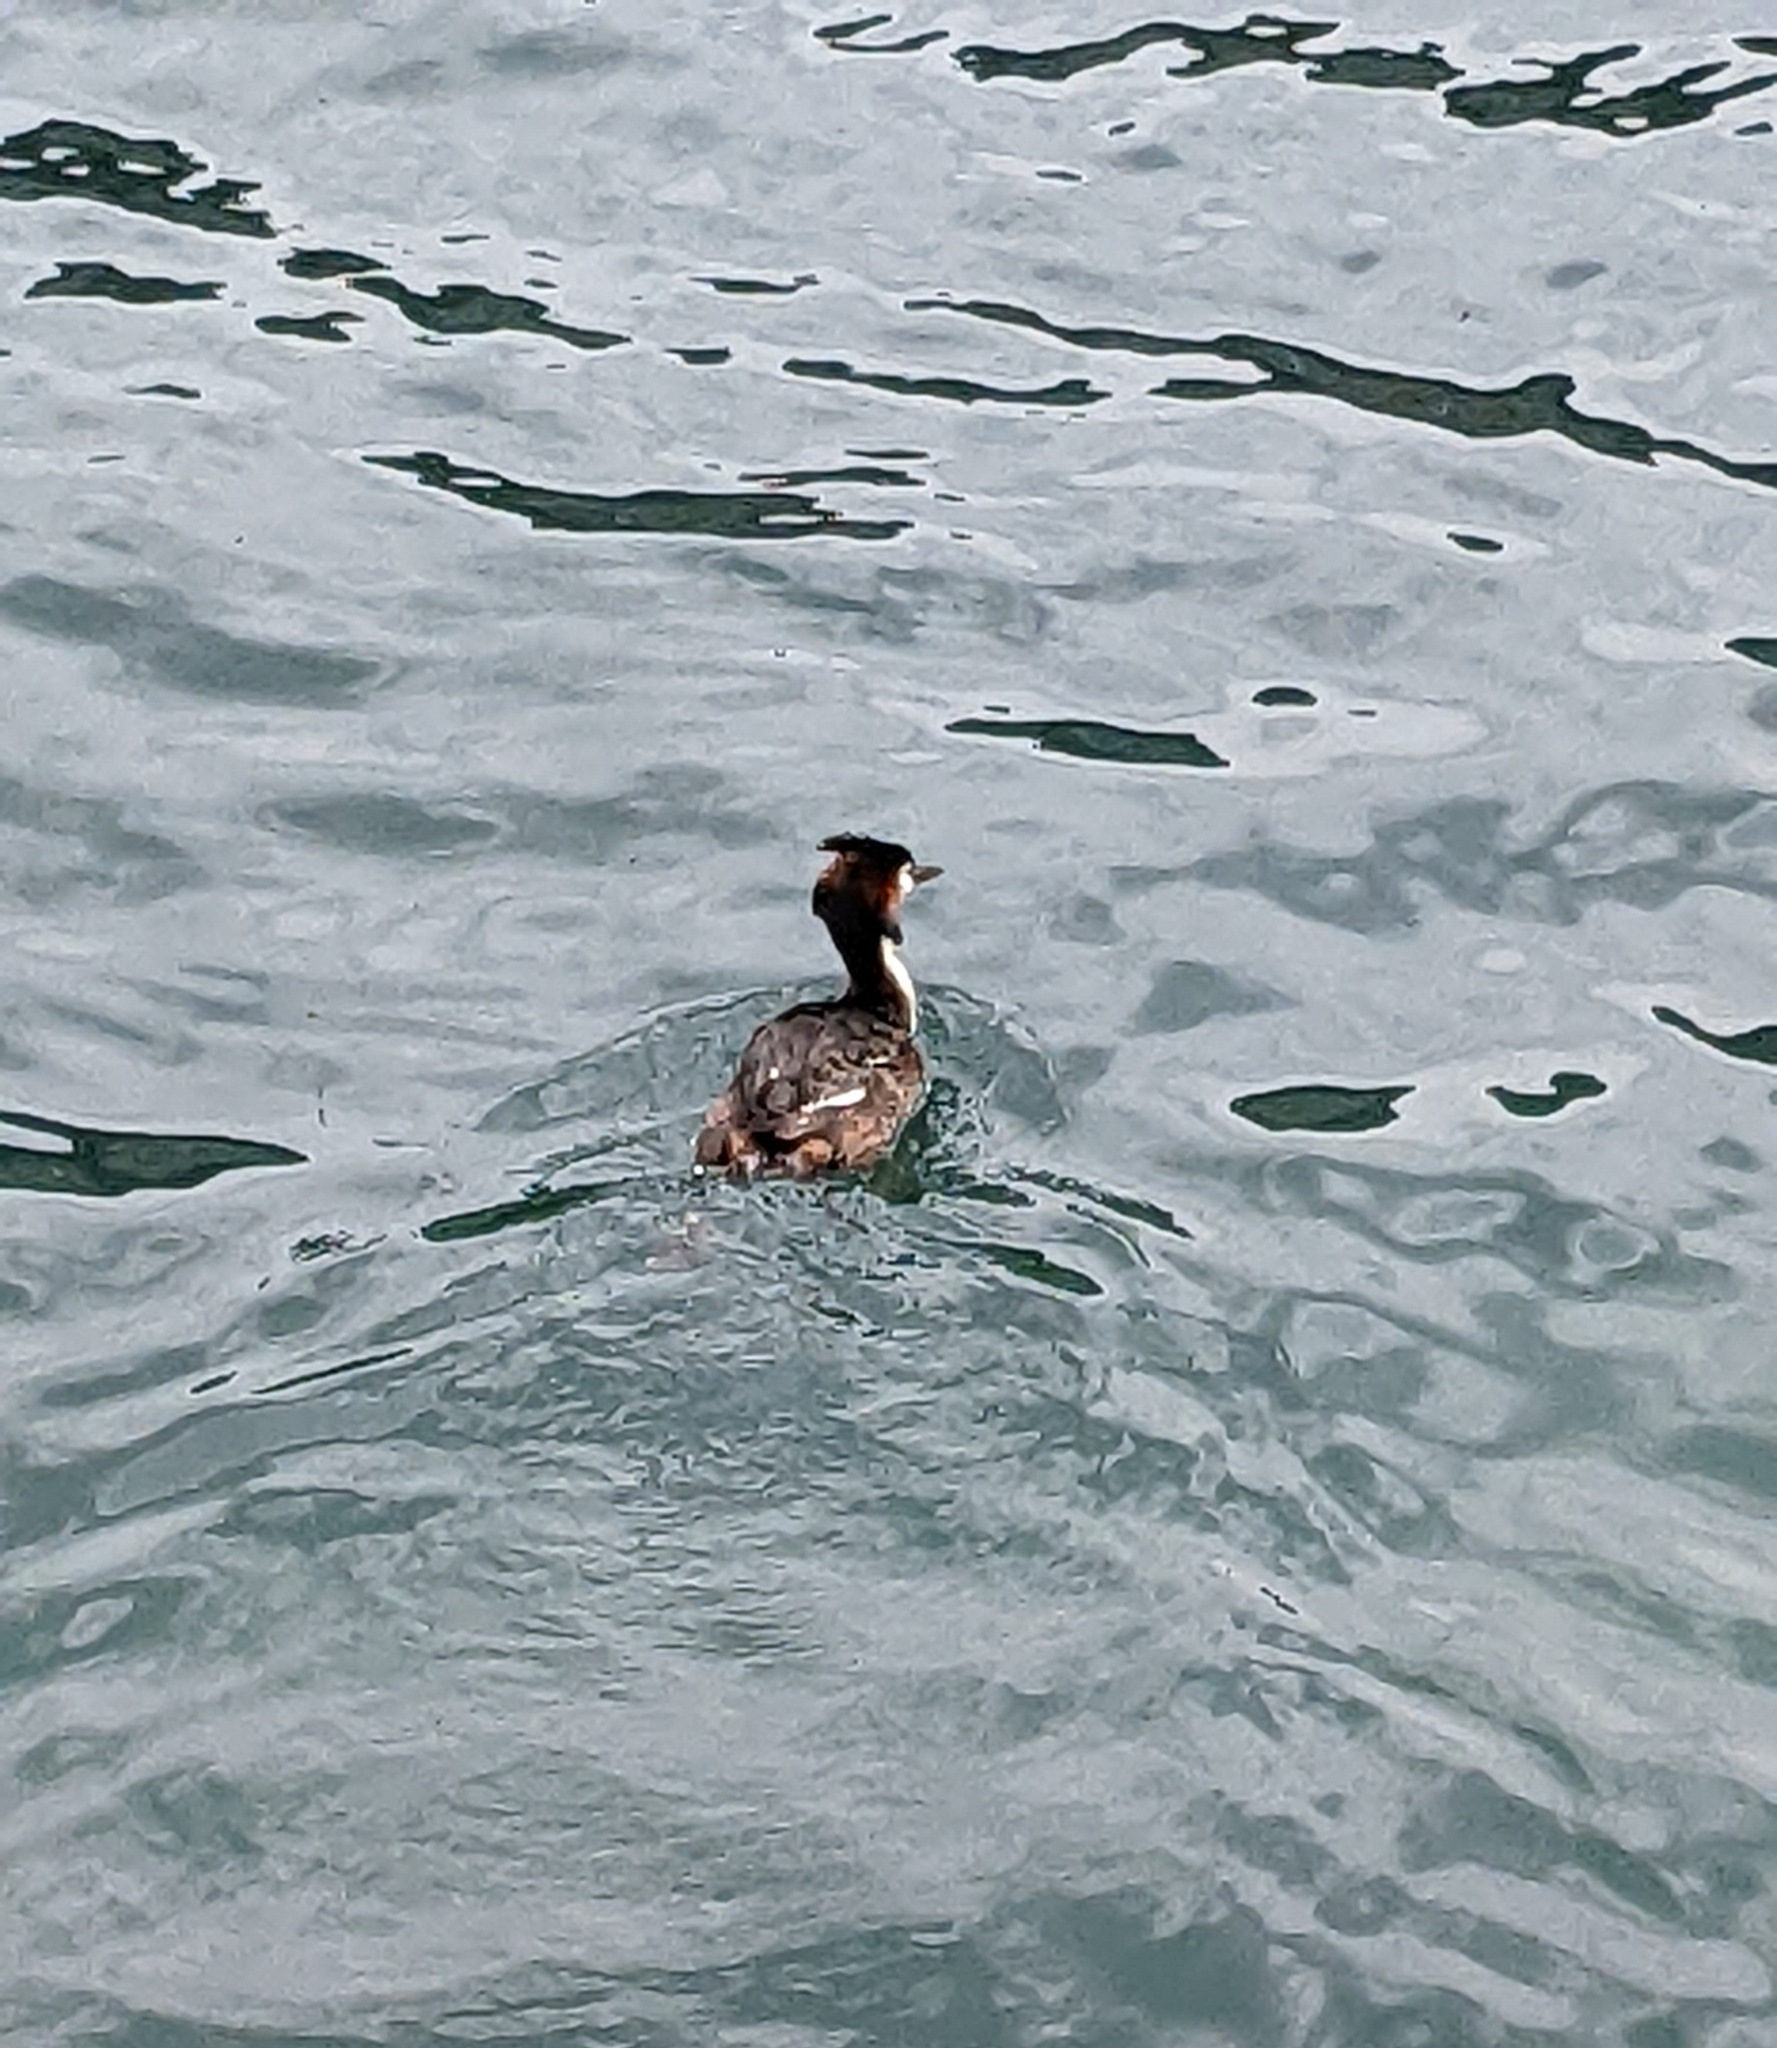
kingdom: Animalia
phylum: Chordata
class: Aves
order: Podicipediformes
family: Podicipedidae
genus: Podiceps
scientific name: Podiceps cristatus
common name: Great crested grebe
